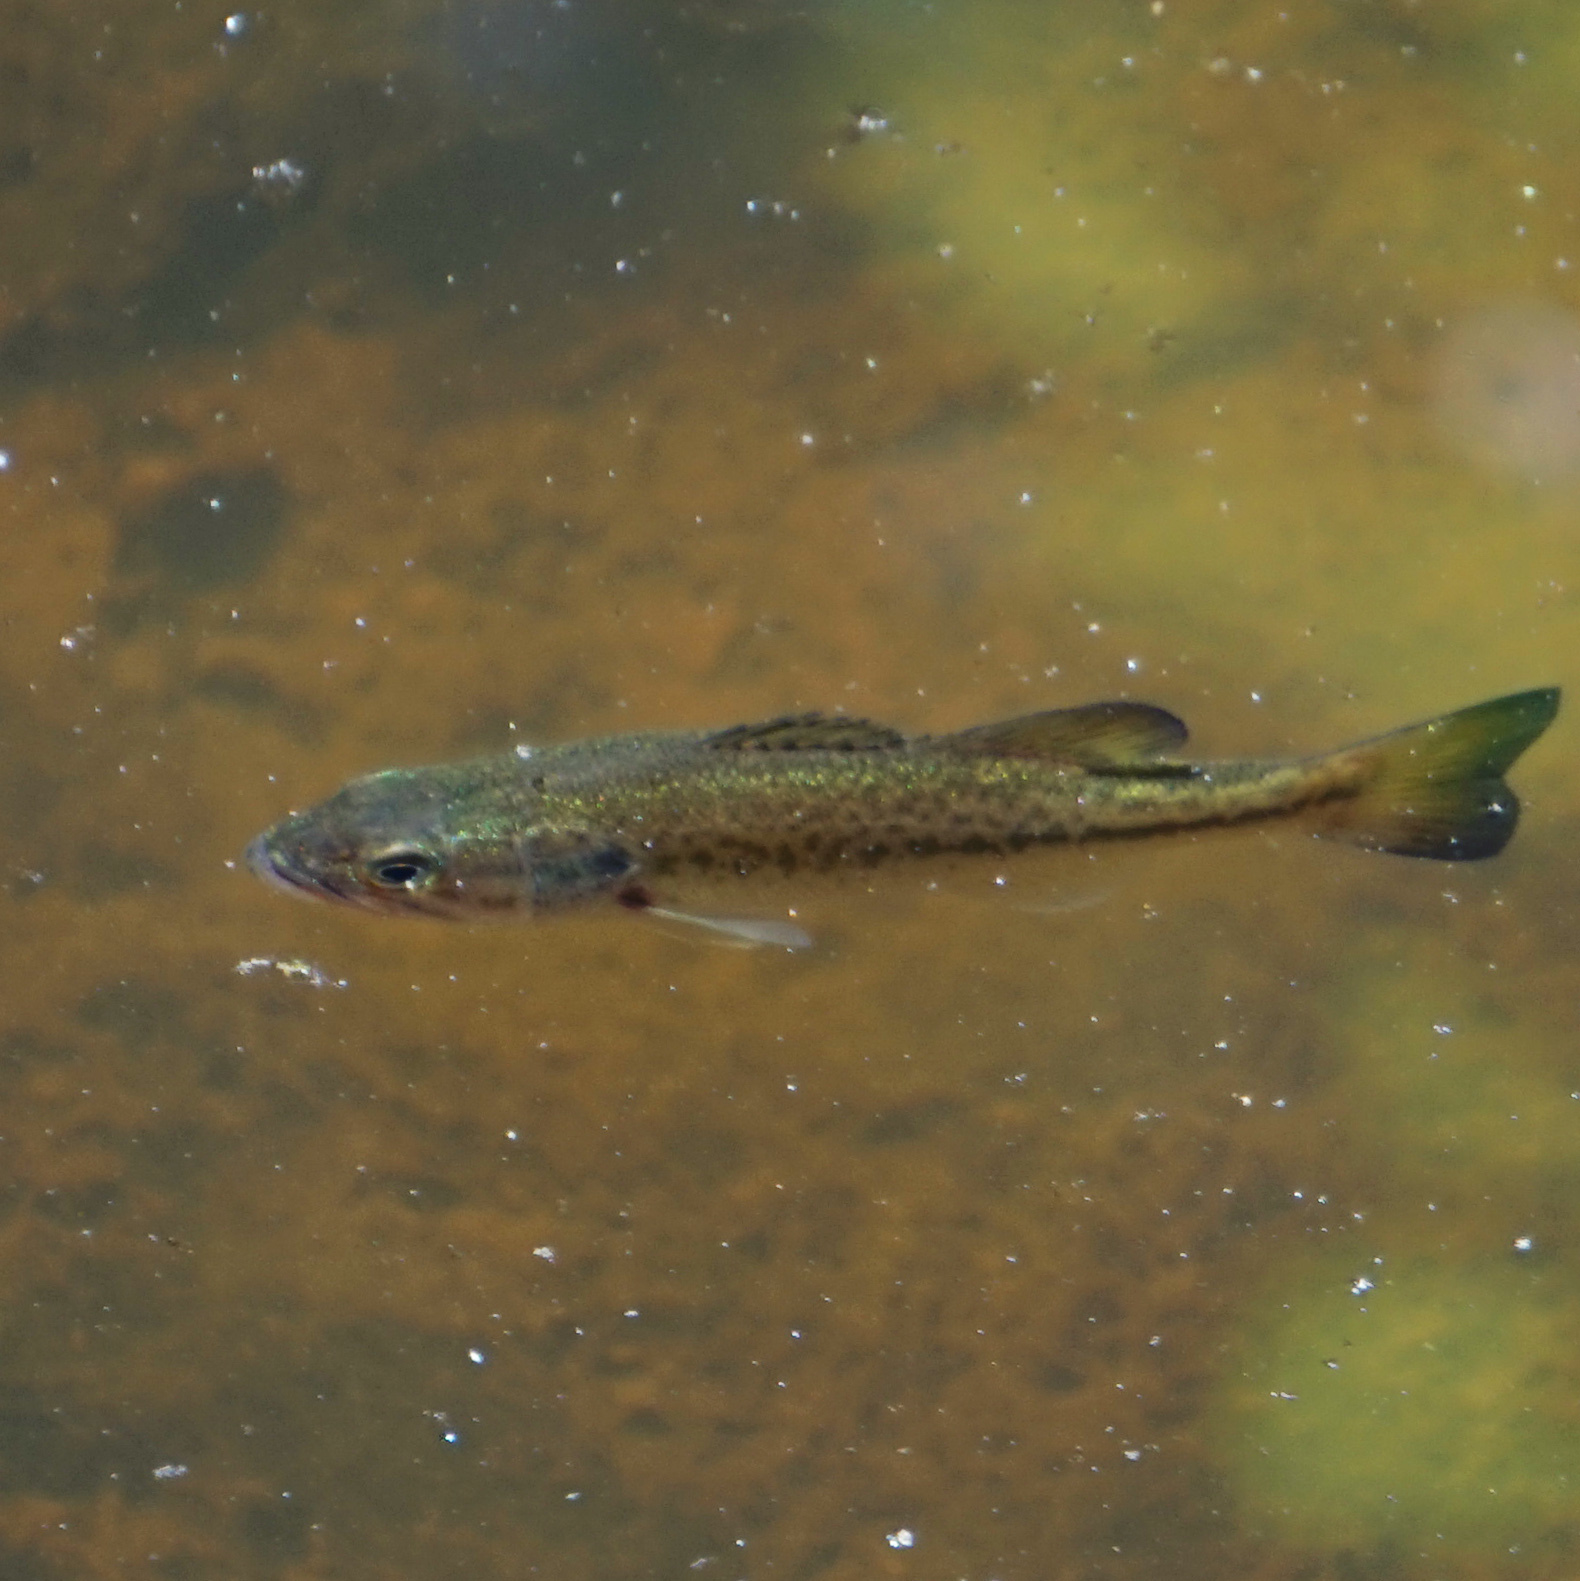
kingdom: Animalia
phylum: Chordata
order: Perciformes
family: Centrarchidae
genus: Micropterus
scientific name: Micropterus
